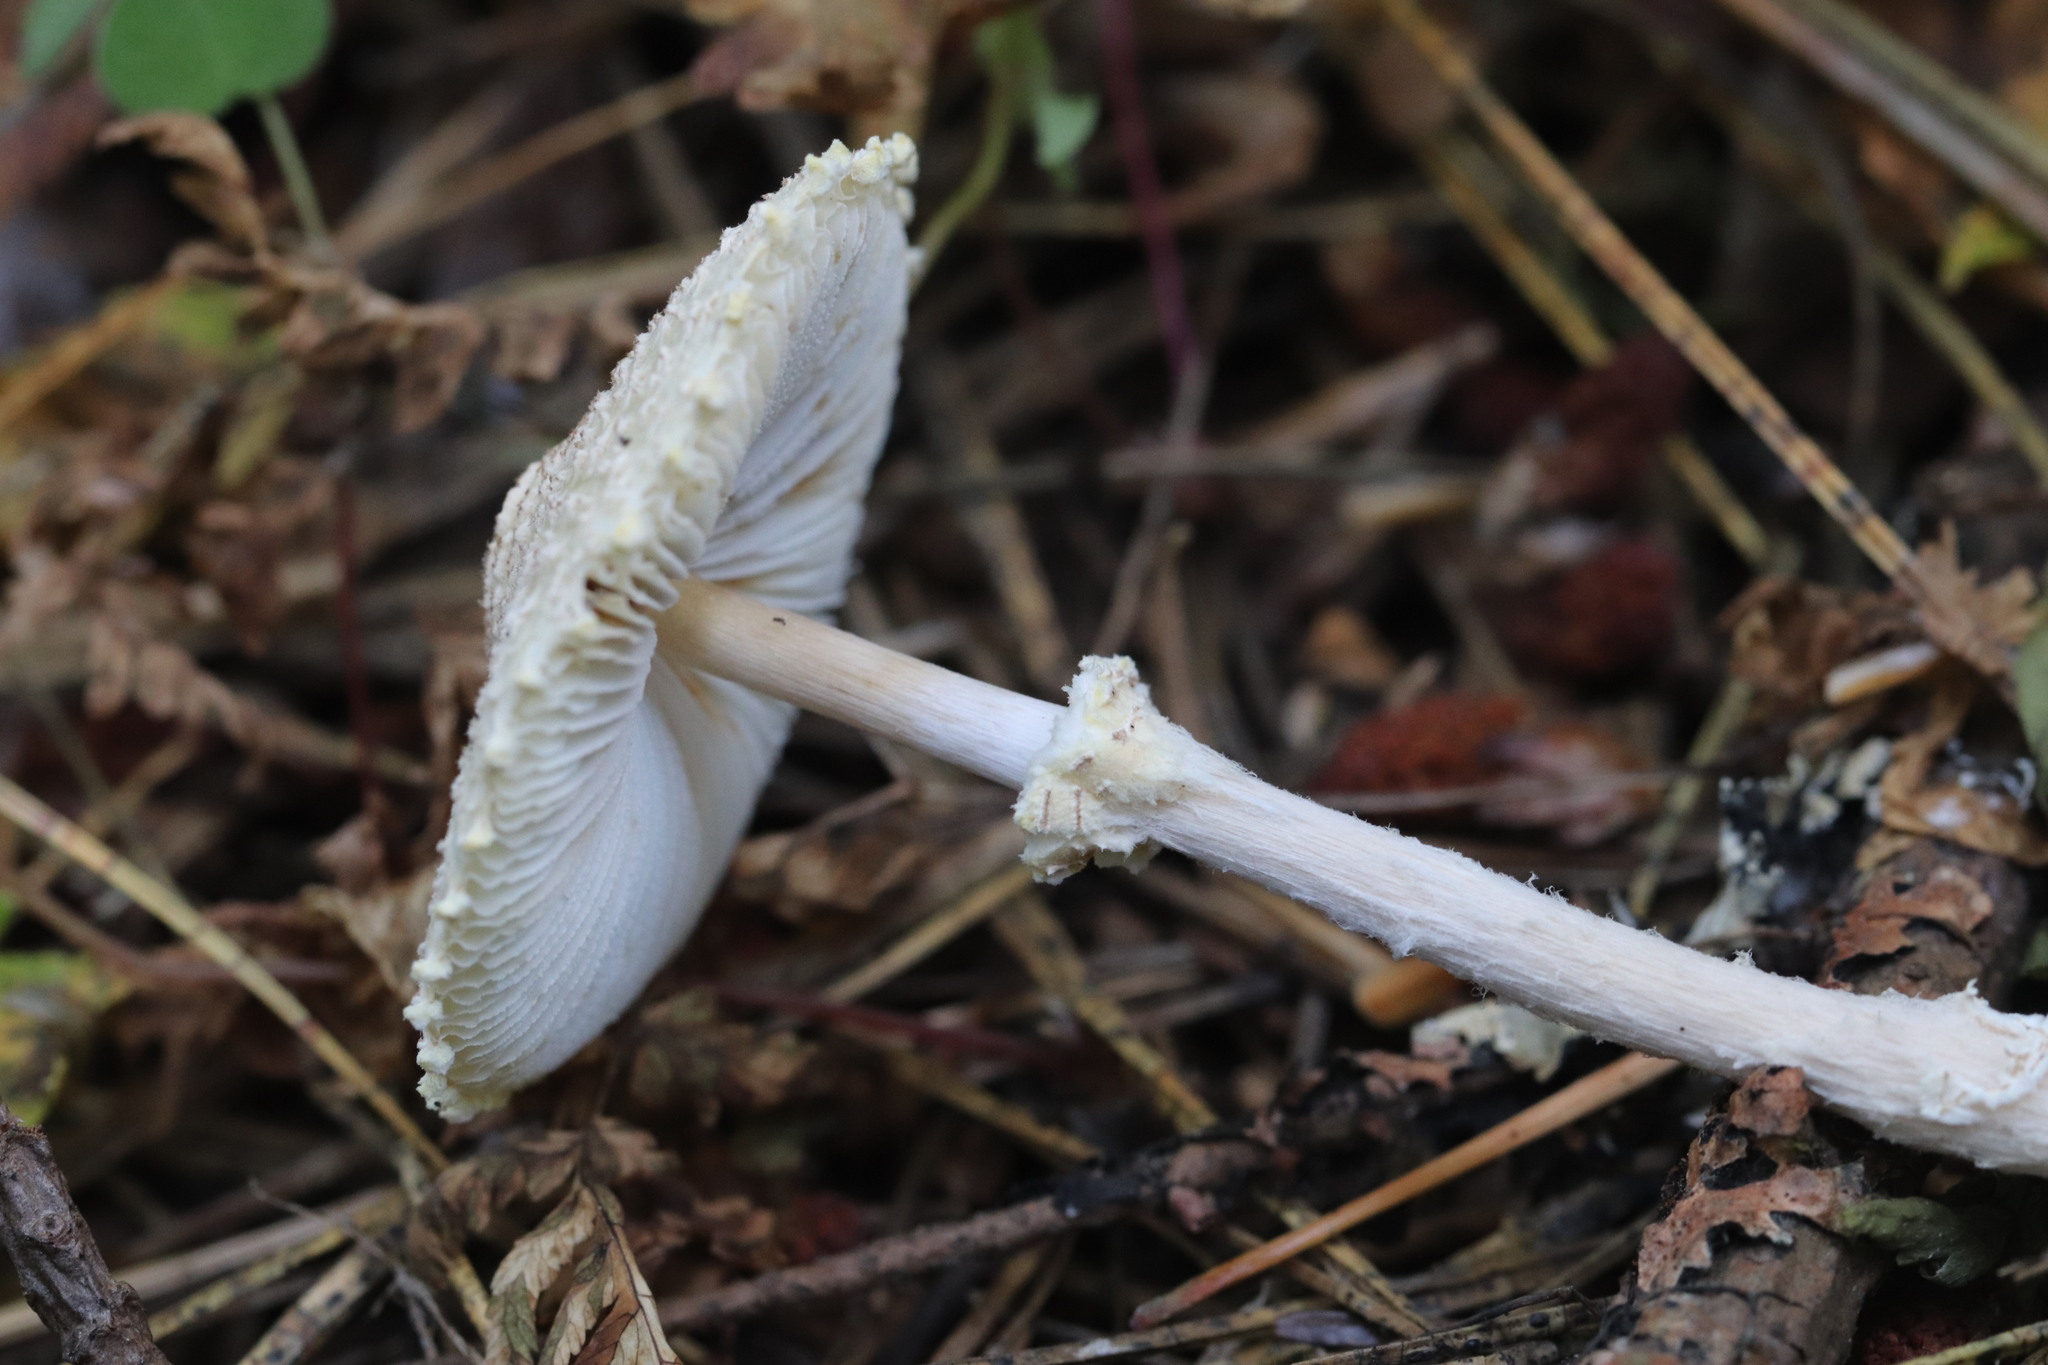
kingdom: Fungi
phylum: Basidiomycota
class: Agaricomycetes
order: Agaricales
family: Agaricaceae
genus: Lepiota
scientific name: Lepiota clypeolaria
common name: Shield dapperling
